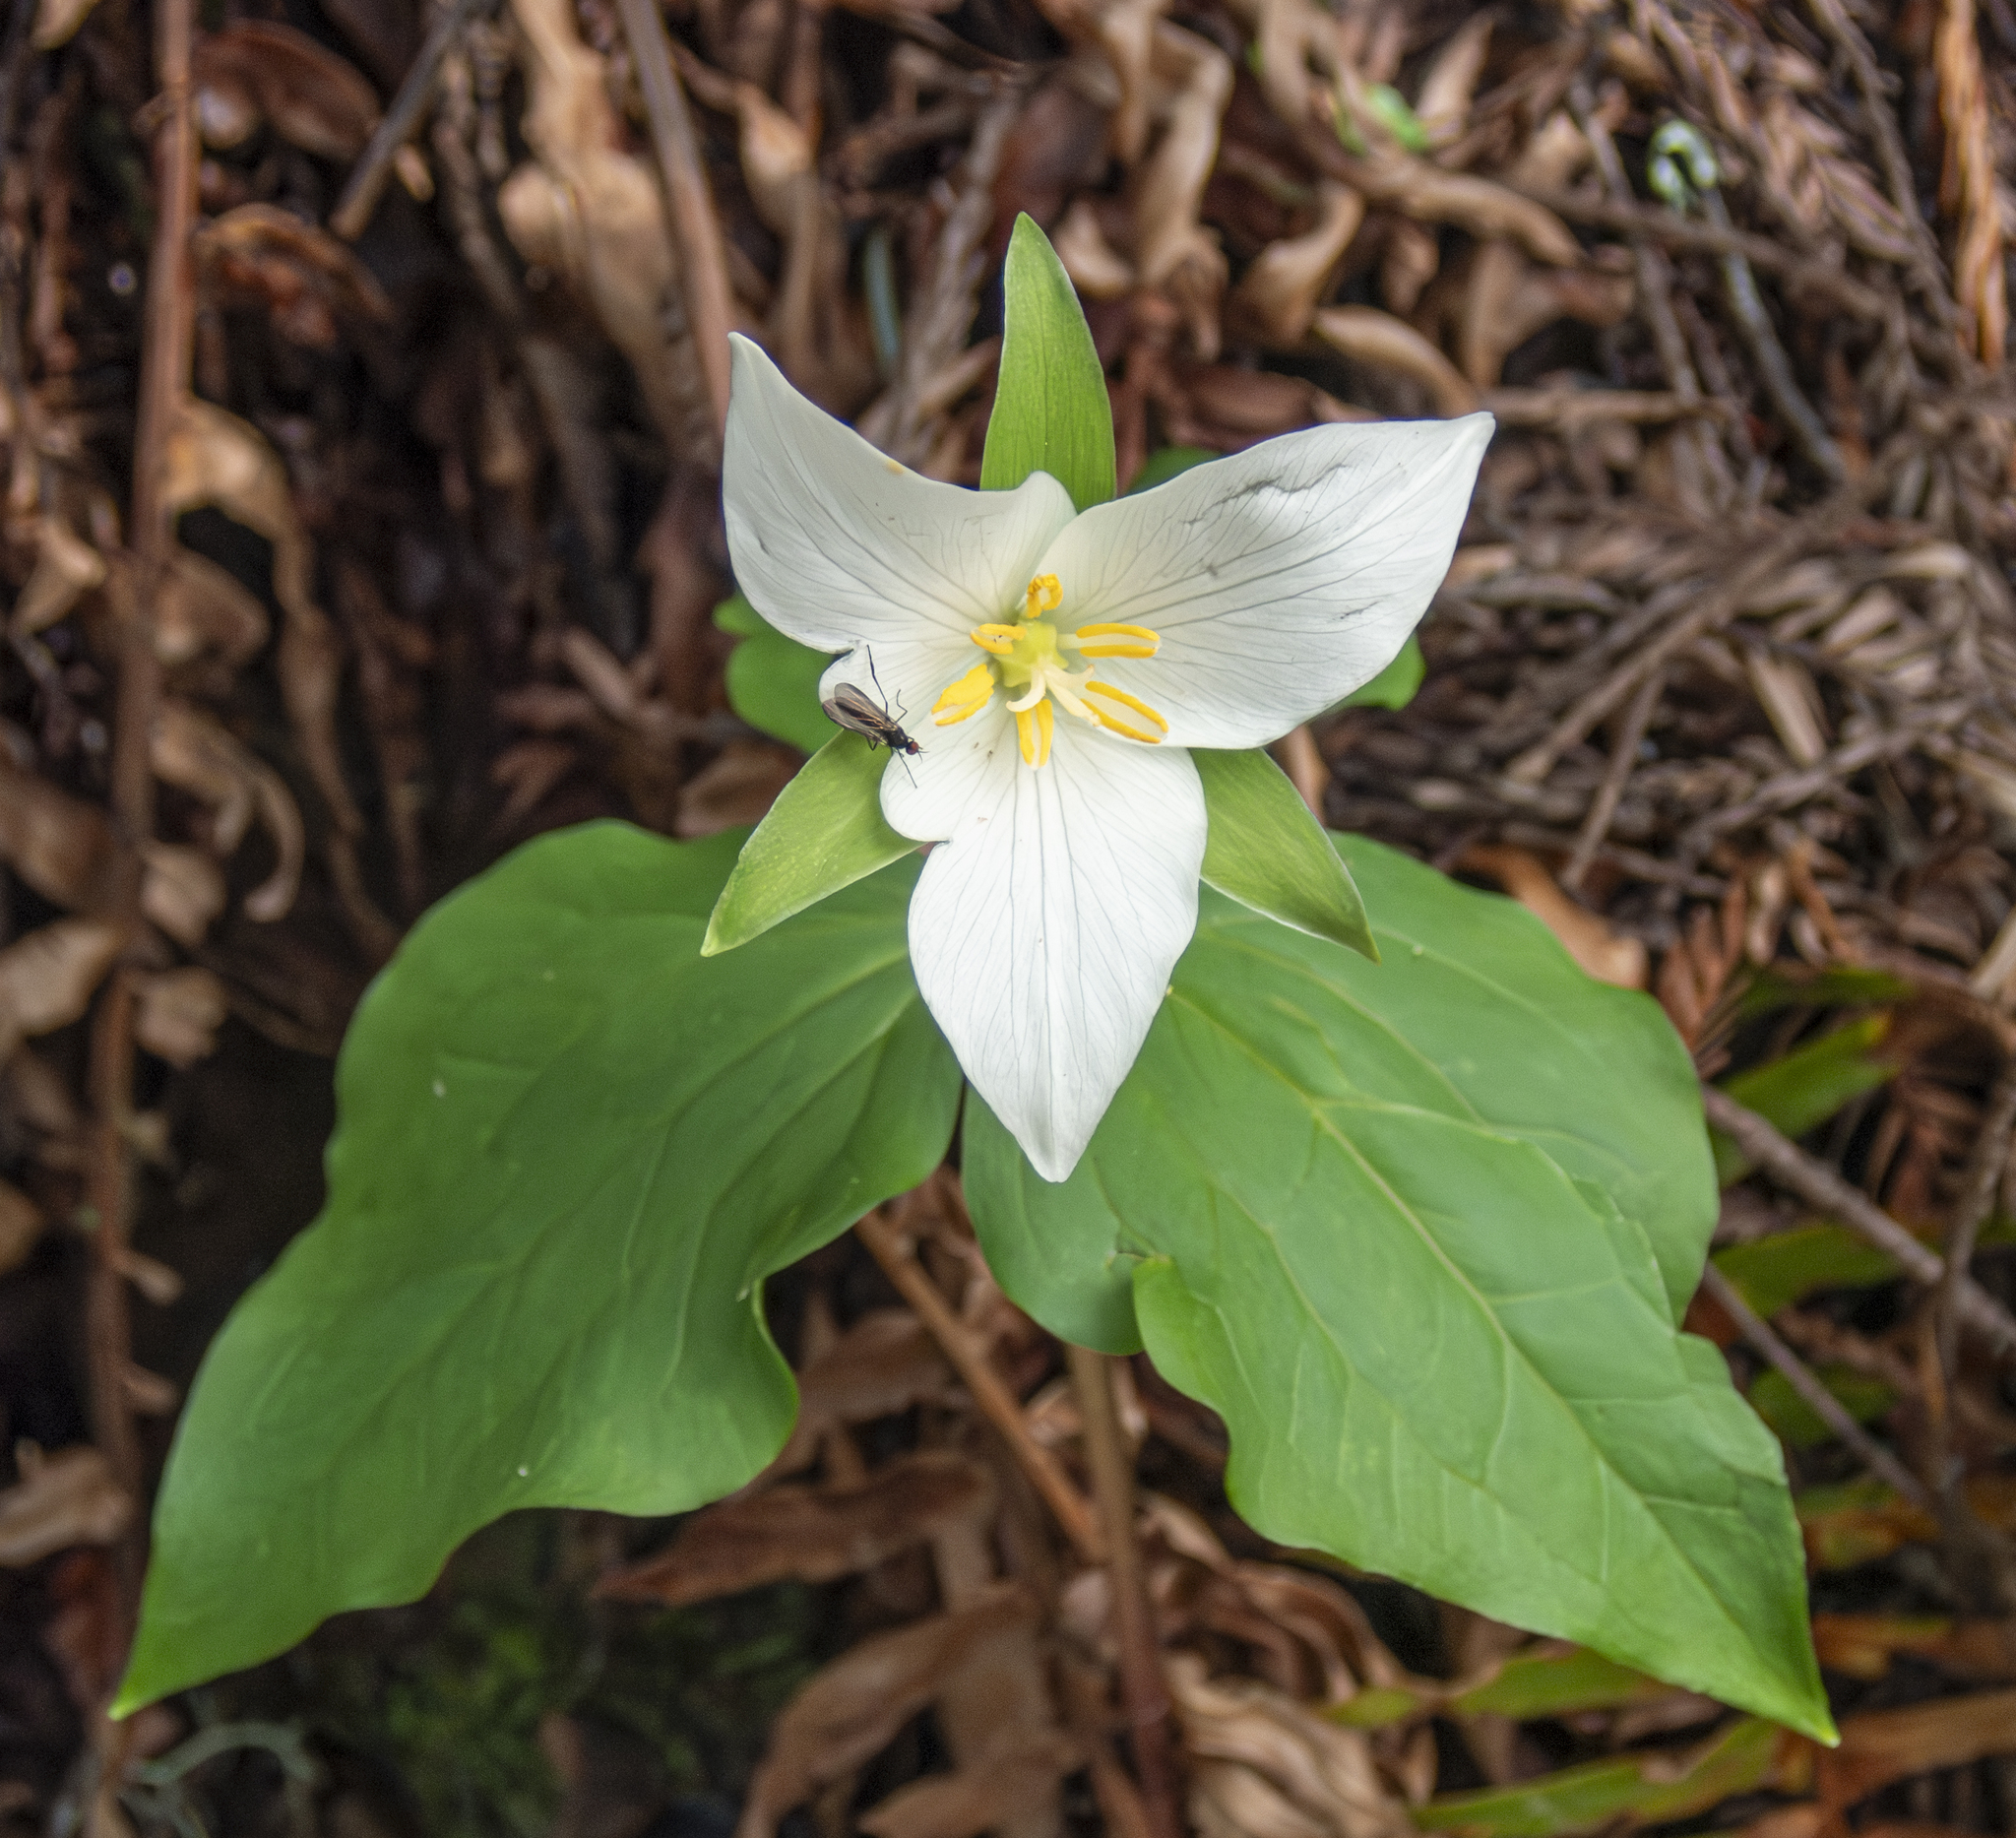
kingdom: Plantae
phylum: Tracheophyta
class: Liliopsida
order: Liliales
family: Melanthiaceae
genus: Trillium
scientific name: Trillium ovatum
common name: Pacific trillium
